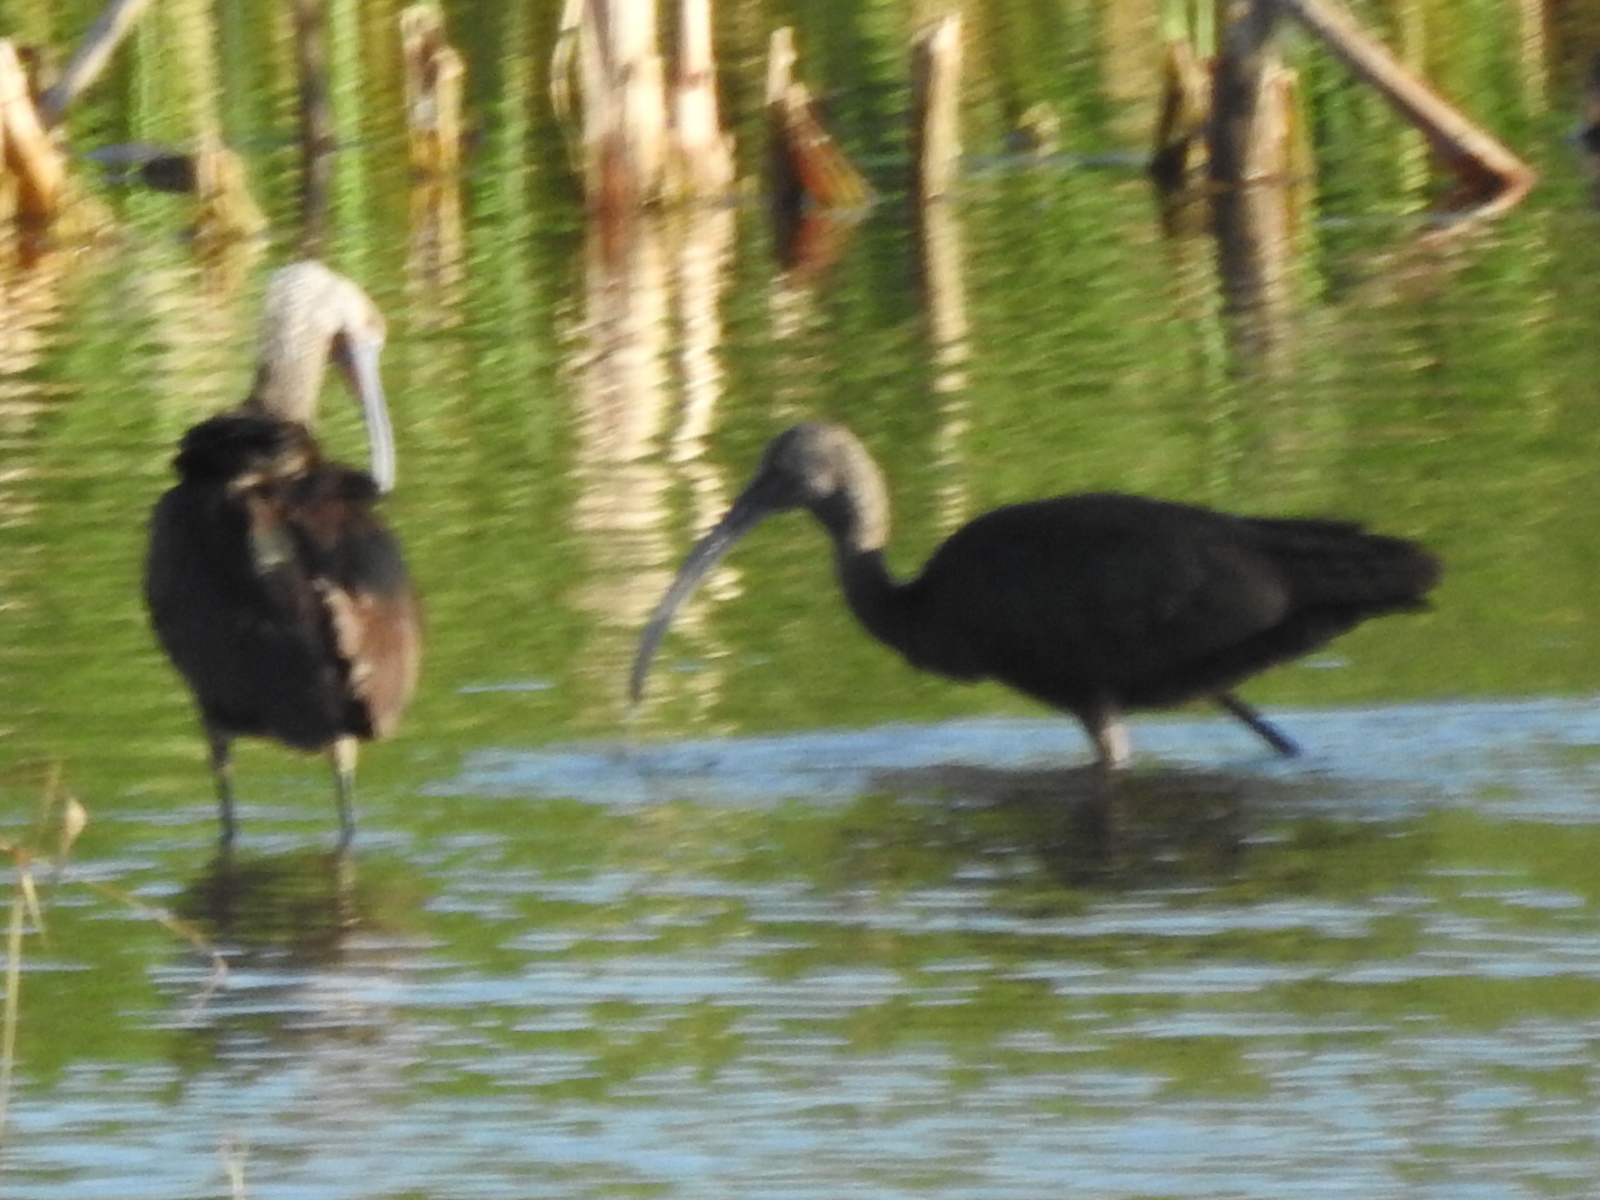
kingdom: Animalia
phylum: Chordata
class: Aves
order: Pelecaniformes
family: Threskiornithidae
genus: Plegadis
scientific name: Plegadis chihi
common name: White-faced ibis
